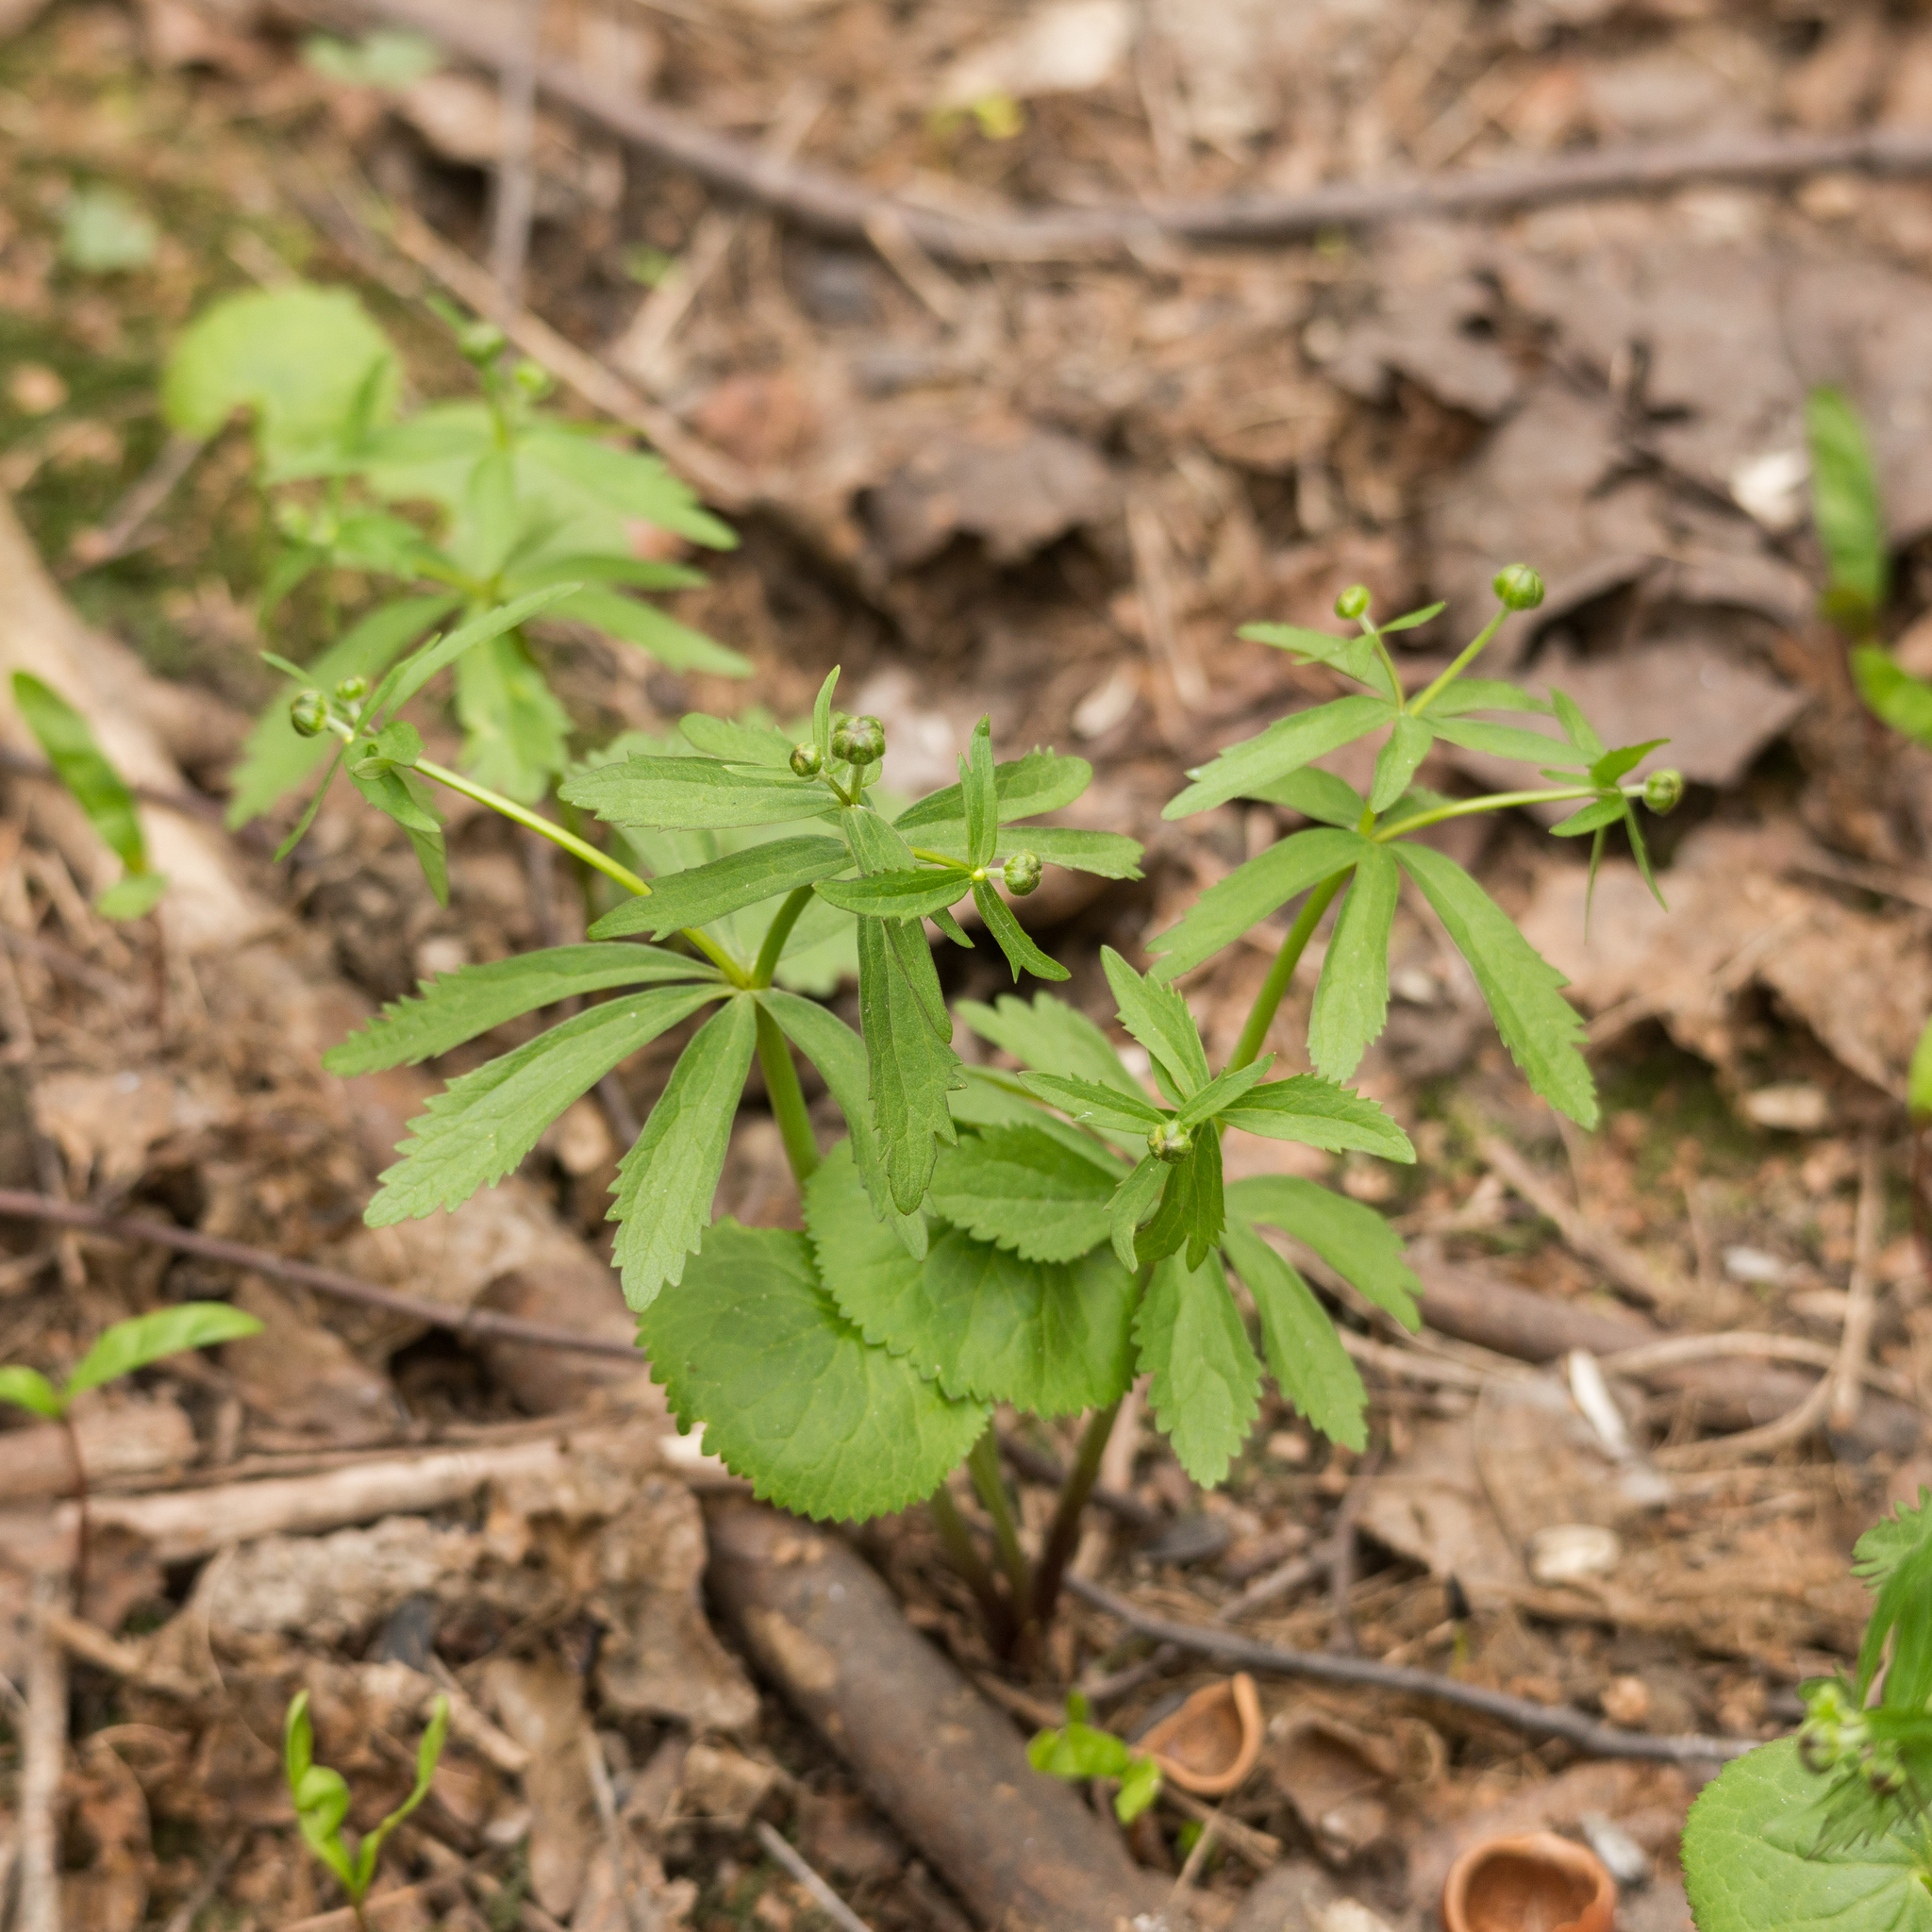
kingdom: Plantae
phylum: Tracheophyta
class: Magnoliopsida
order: Ranunculales
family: Ranunculaceae
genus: Ranunculus
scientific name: Ranunculus cassubicus
